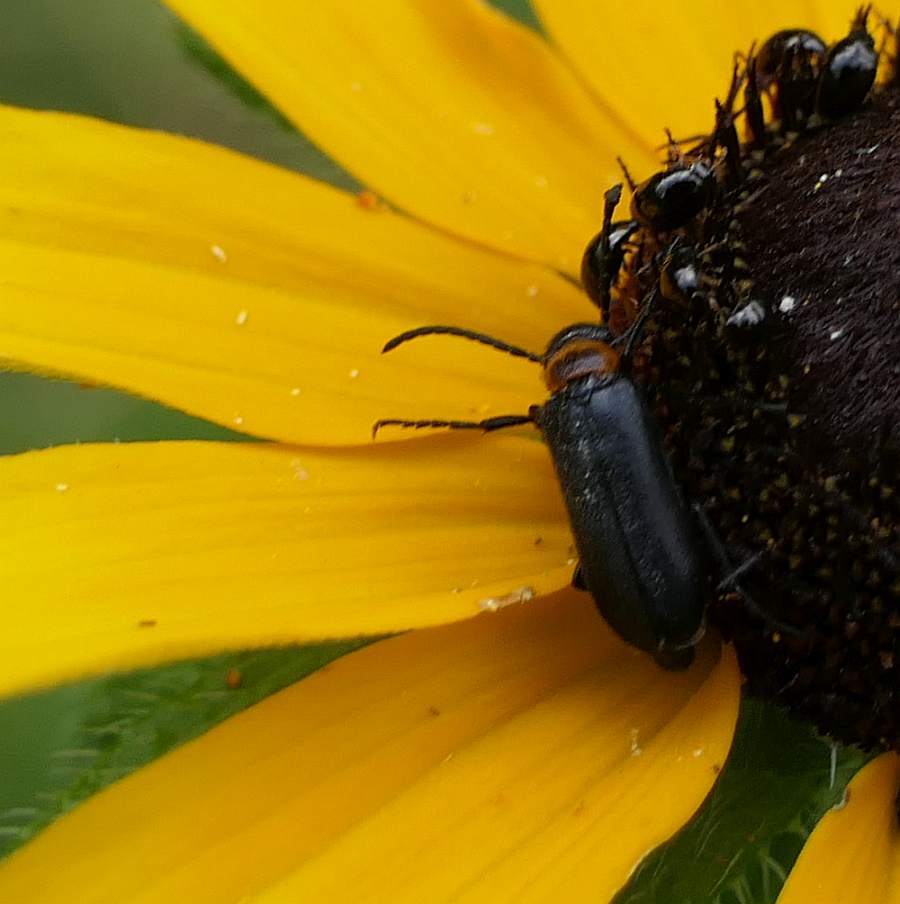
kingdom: Animalia
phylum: Arthropoda
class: Insecta
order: Coleoptera
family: Meloidae
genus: Nemognatha
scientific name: Nemognatha nemorensis
